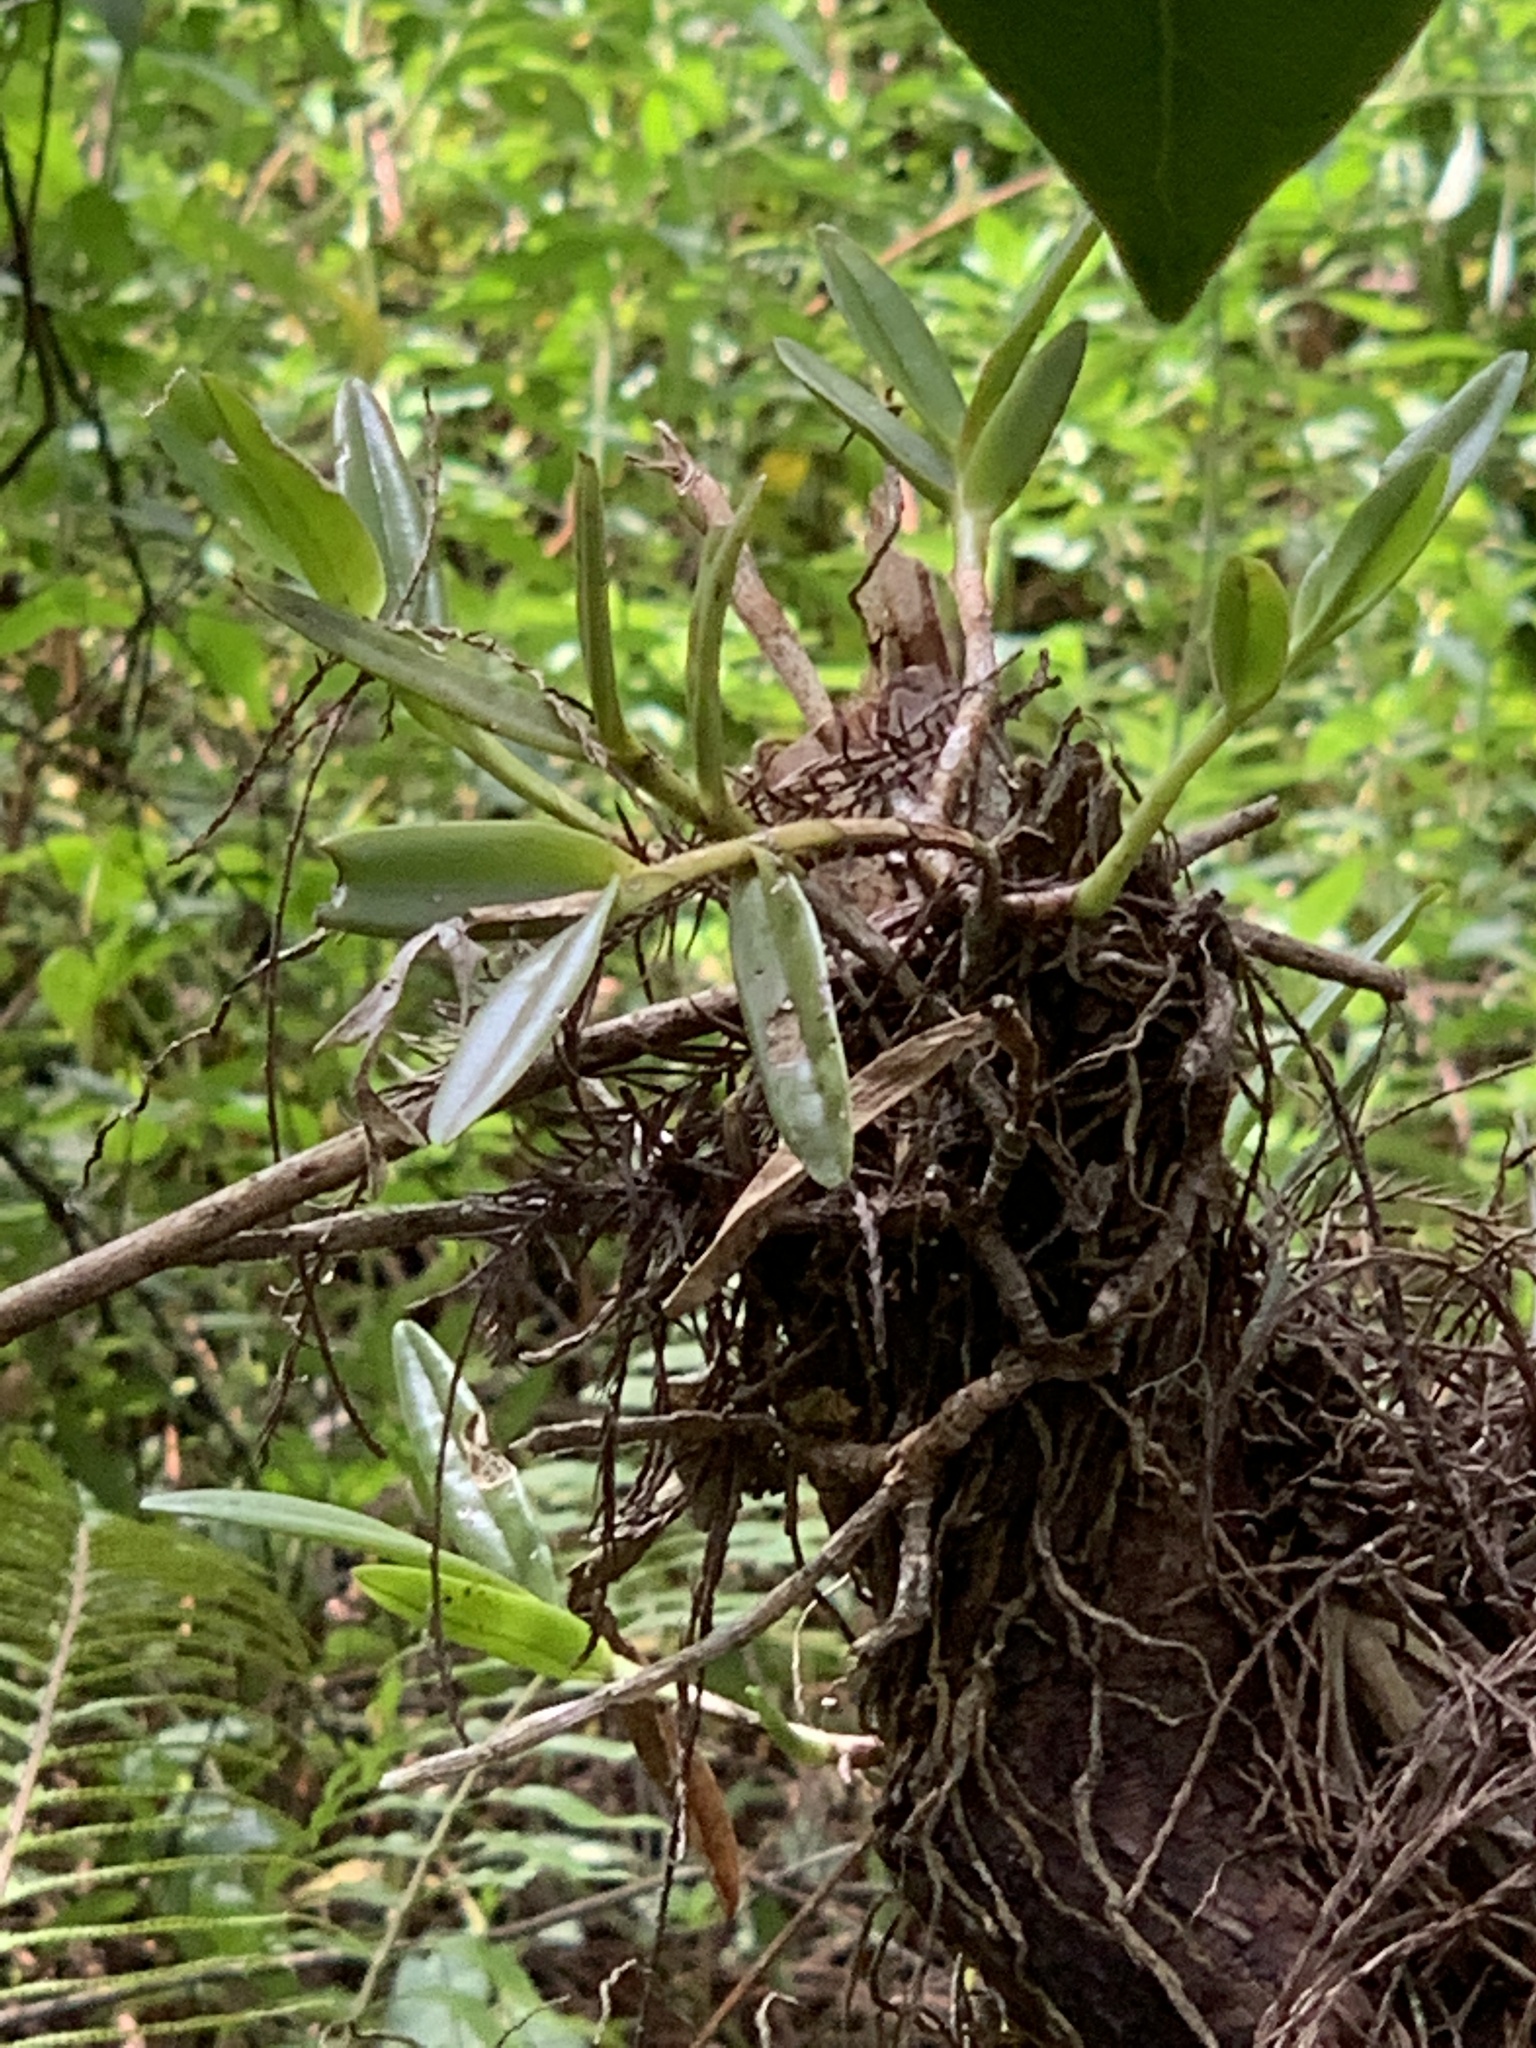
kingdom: Plantae
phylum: Tracheophyta
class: Liliopsida
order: Asparagales
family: Orchidaceae
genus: Epidendrum
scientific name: Epidendrum rigidum
